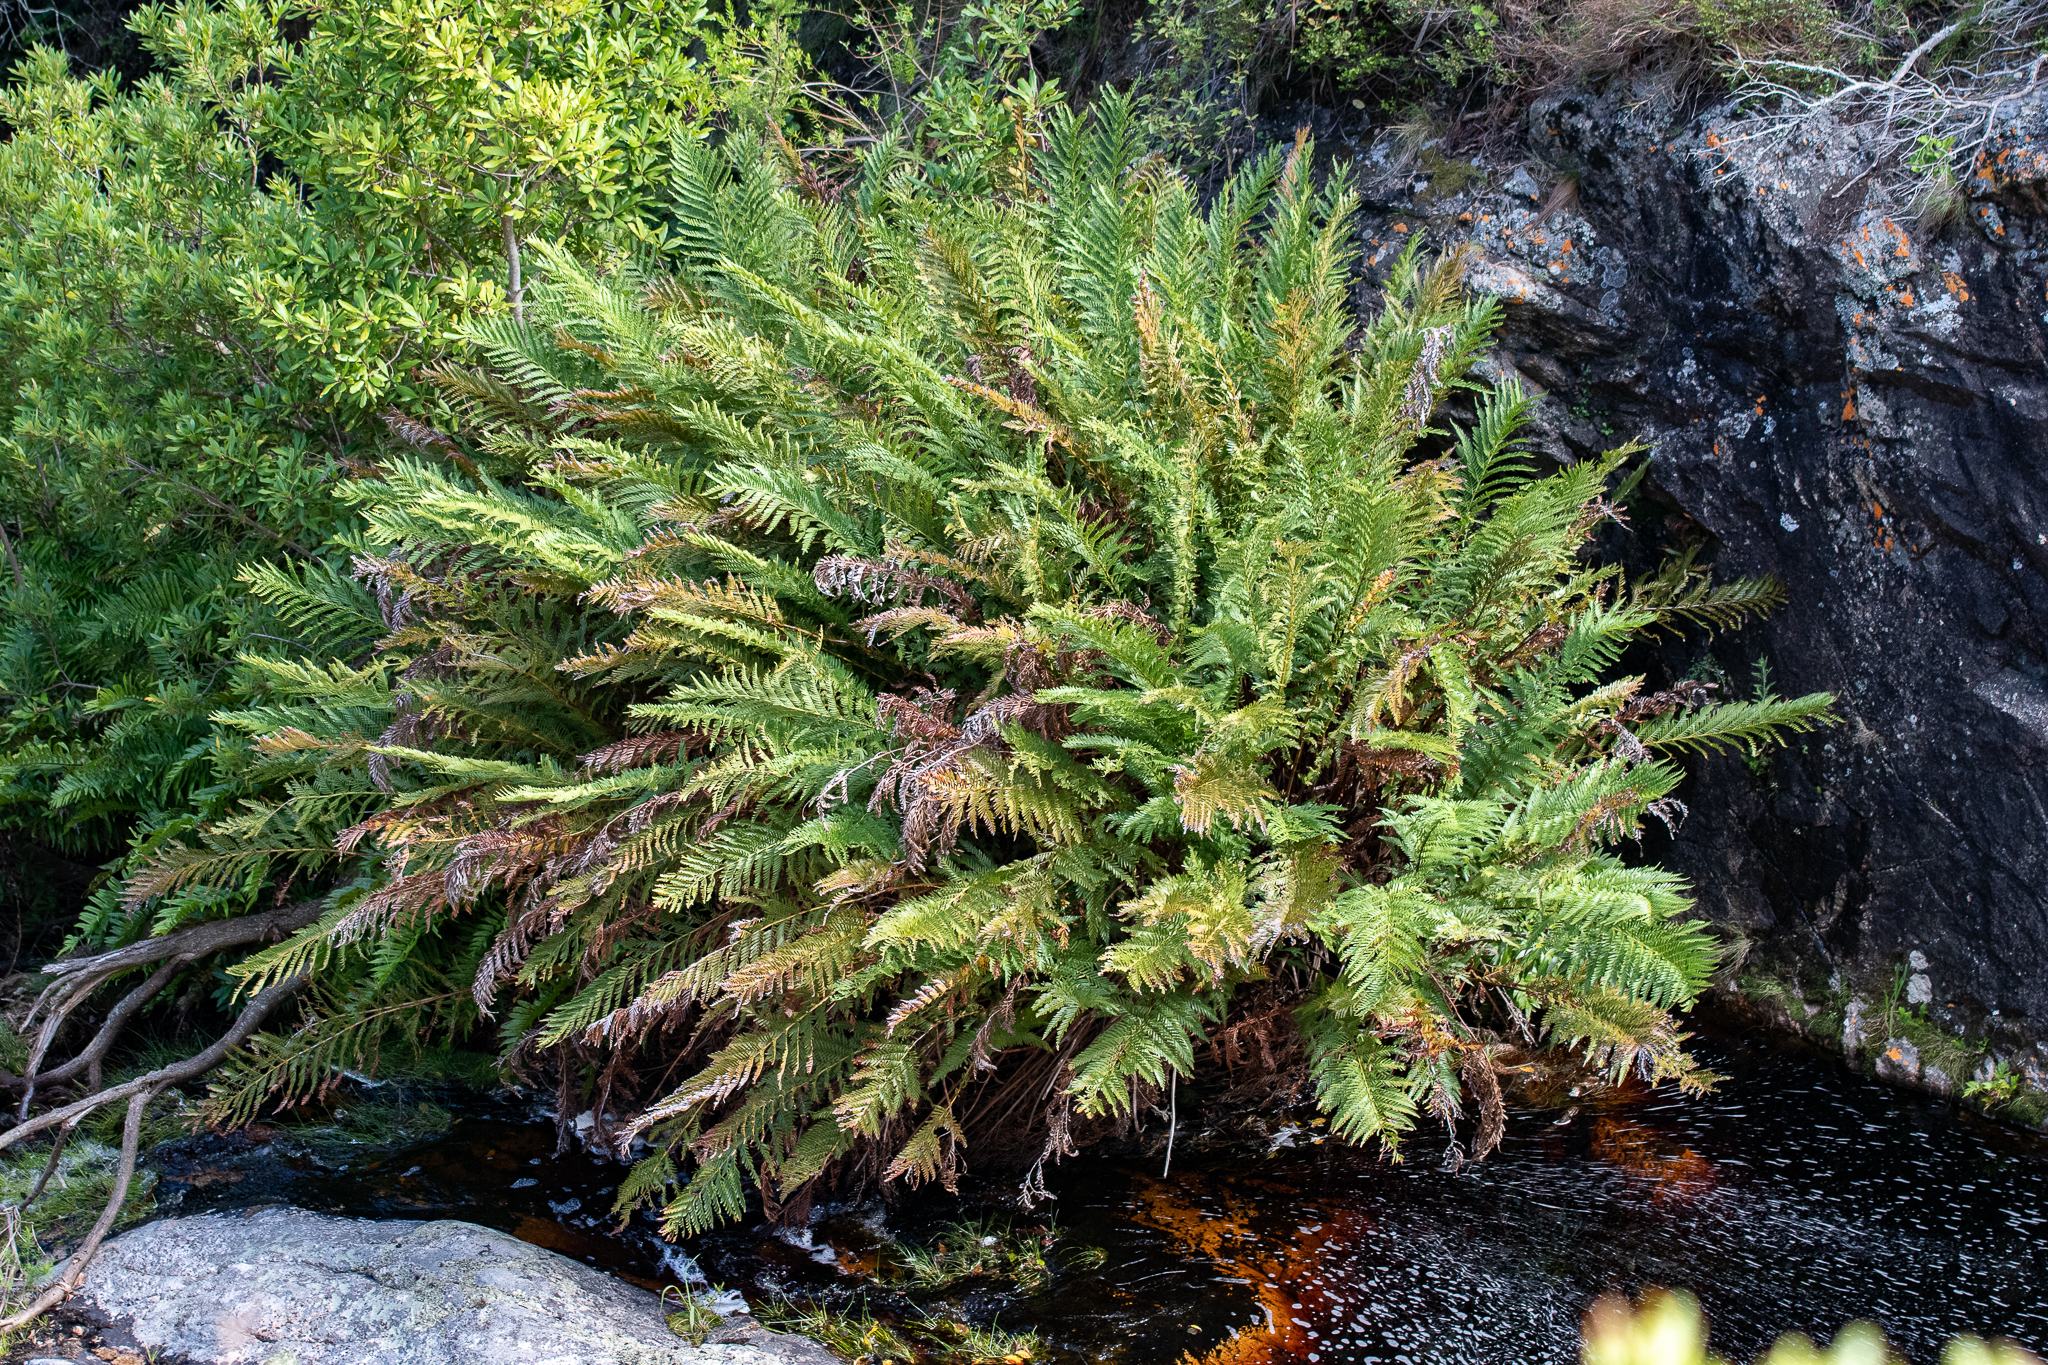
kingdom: Plantae
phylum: Tracheophyta
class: Polypodiopsida
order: Osmundales
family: Osmundaceae
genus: Todea
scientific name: Todea barbara
